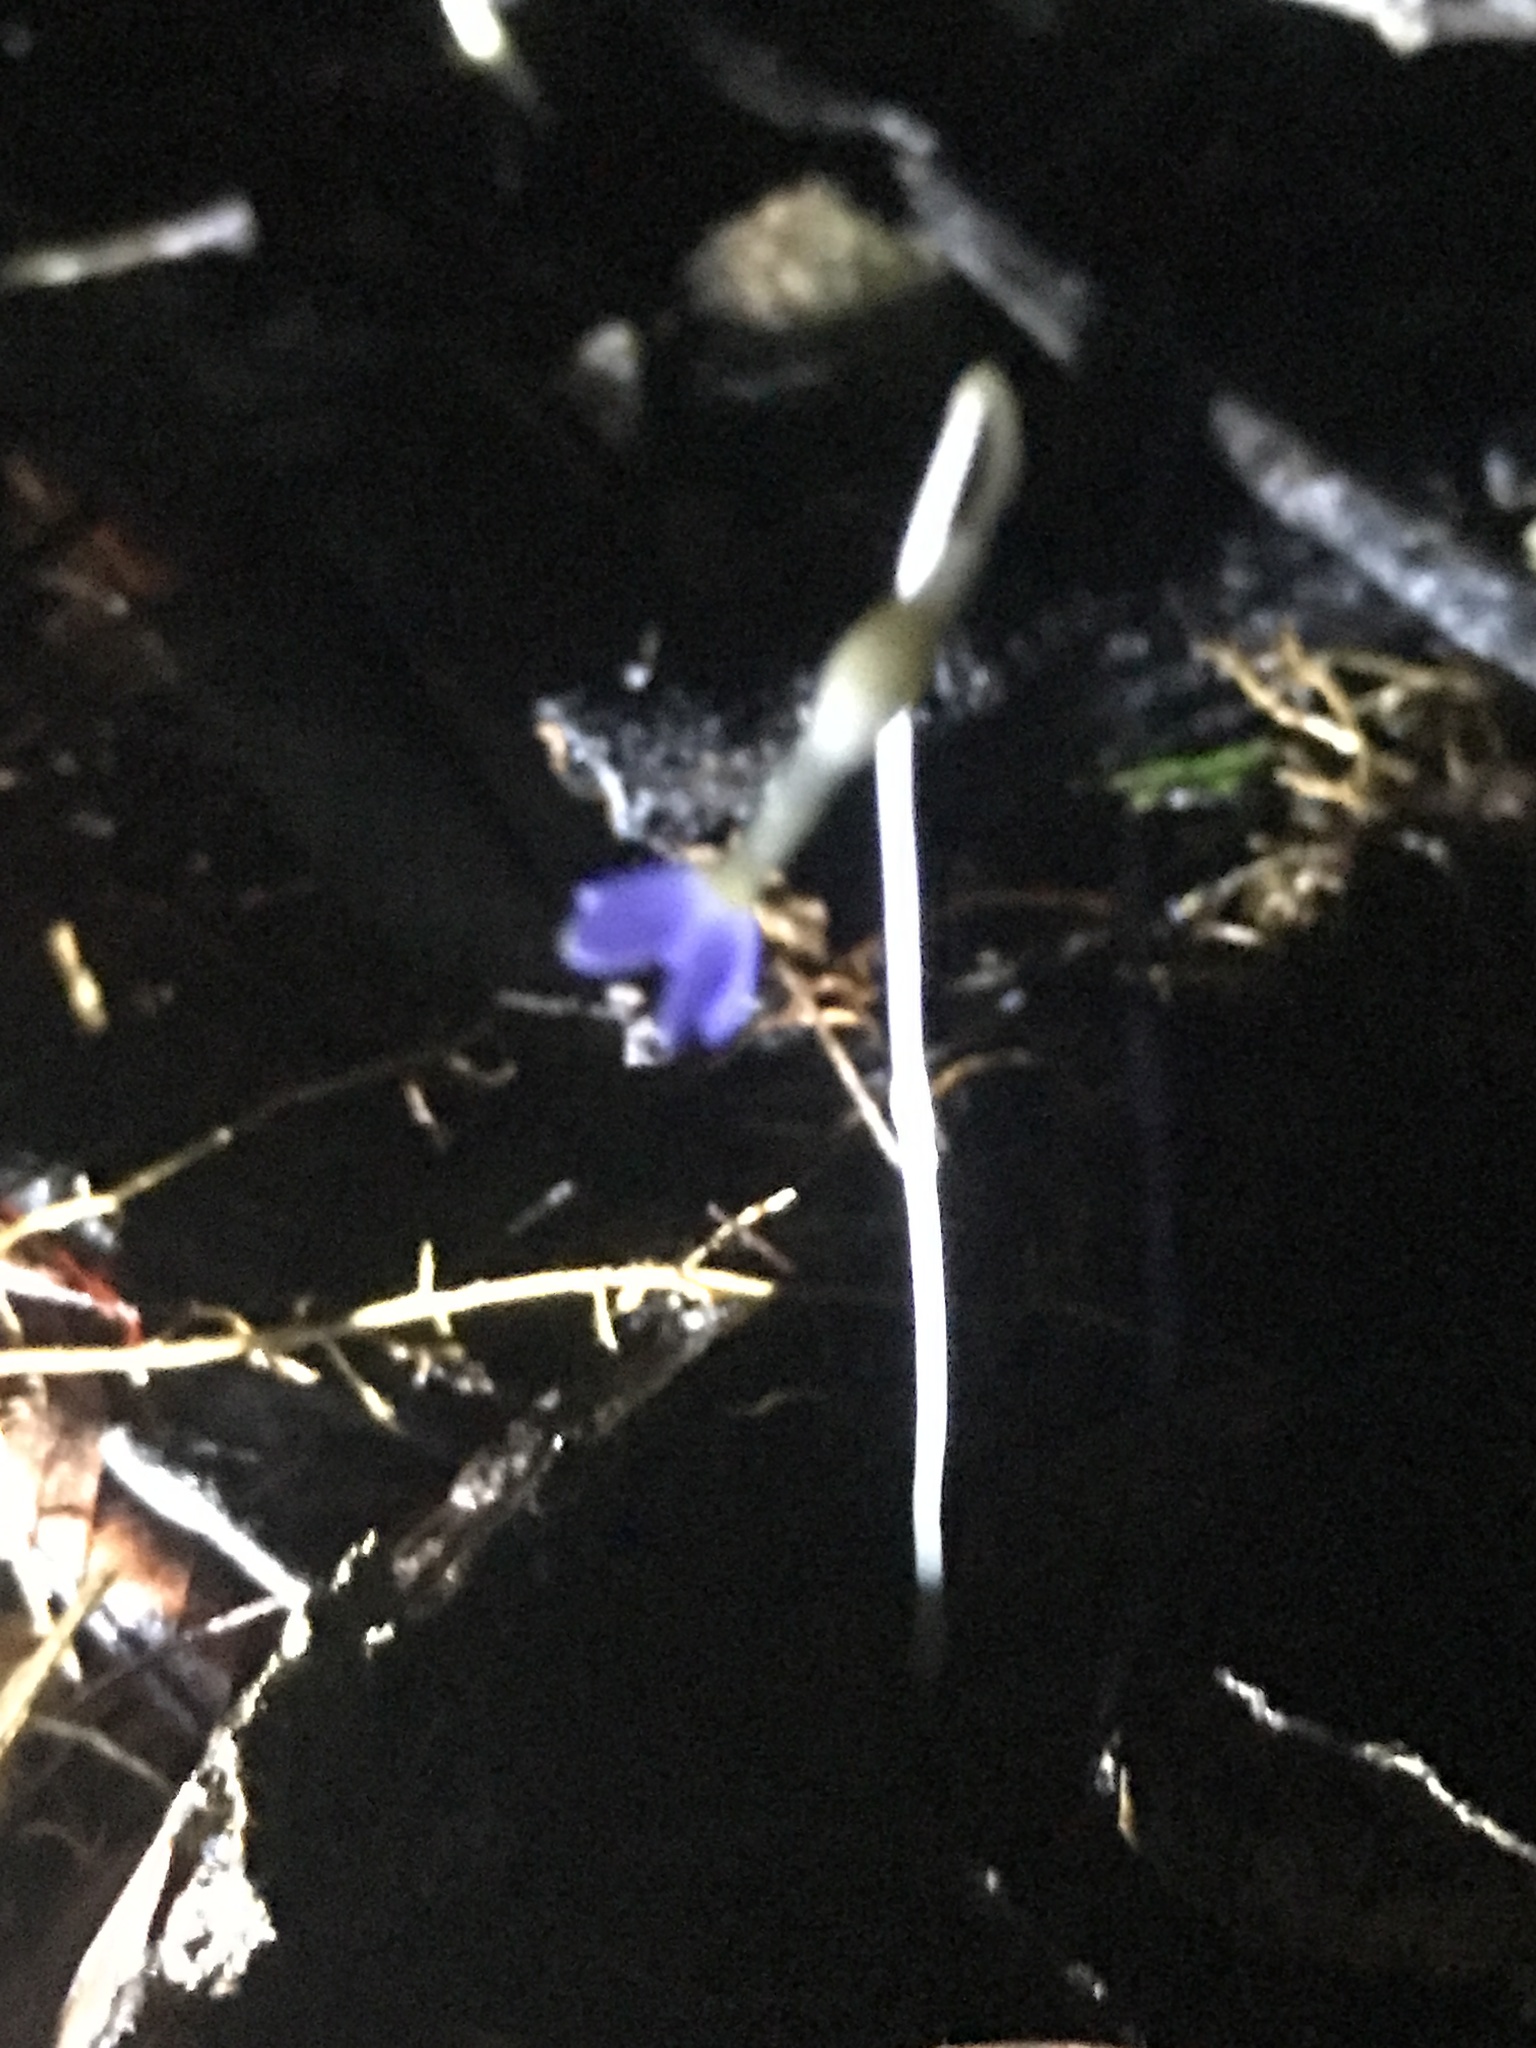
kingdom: Plantae
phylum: Tracheophyta
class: Magnoliopsida
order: Gentianales
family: Gentianaceae
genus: Voyria
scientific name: Voyria tenella
